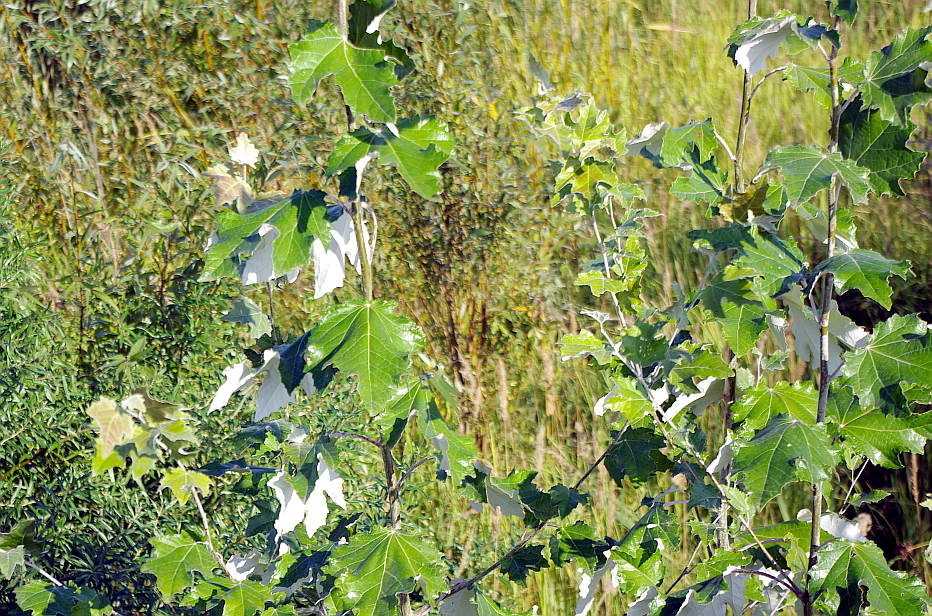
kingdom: Plantae
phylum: Tracheophyta
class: Magnoliopsida
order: Malpighiales
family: Salicaceae
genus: Populus
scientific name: Populus alba
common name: White poplar
